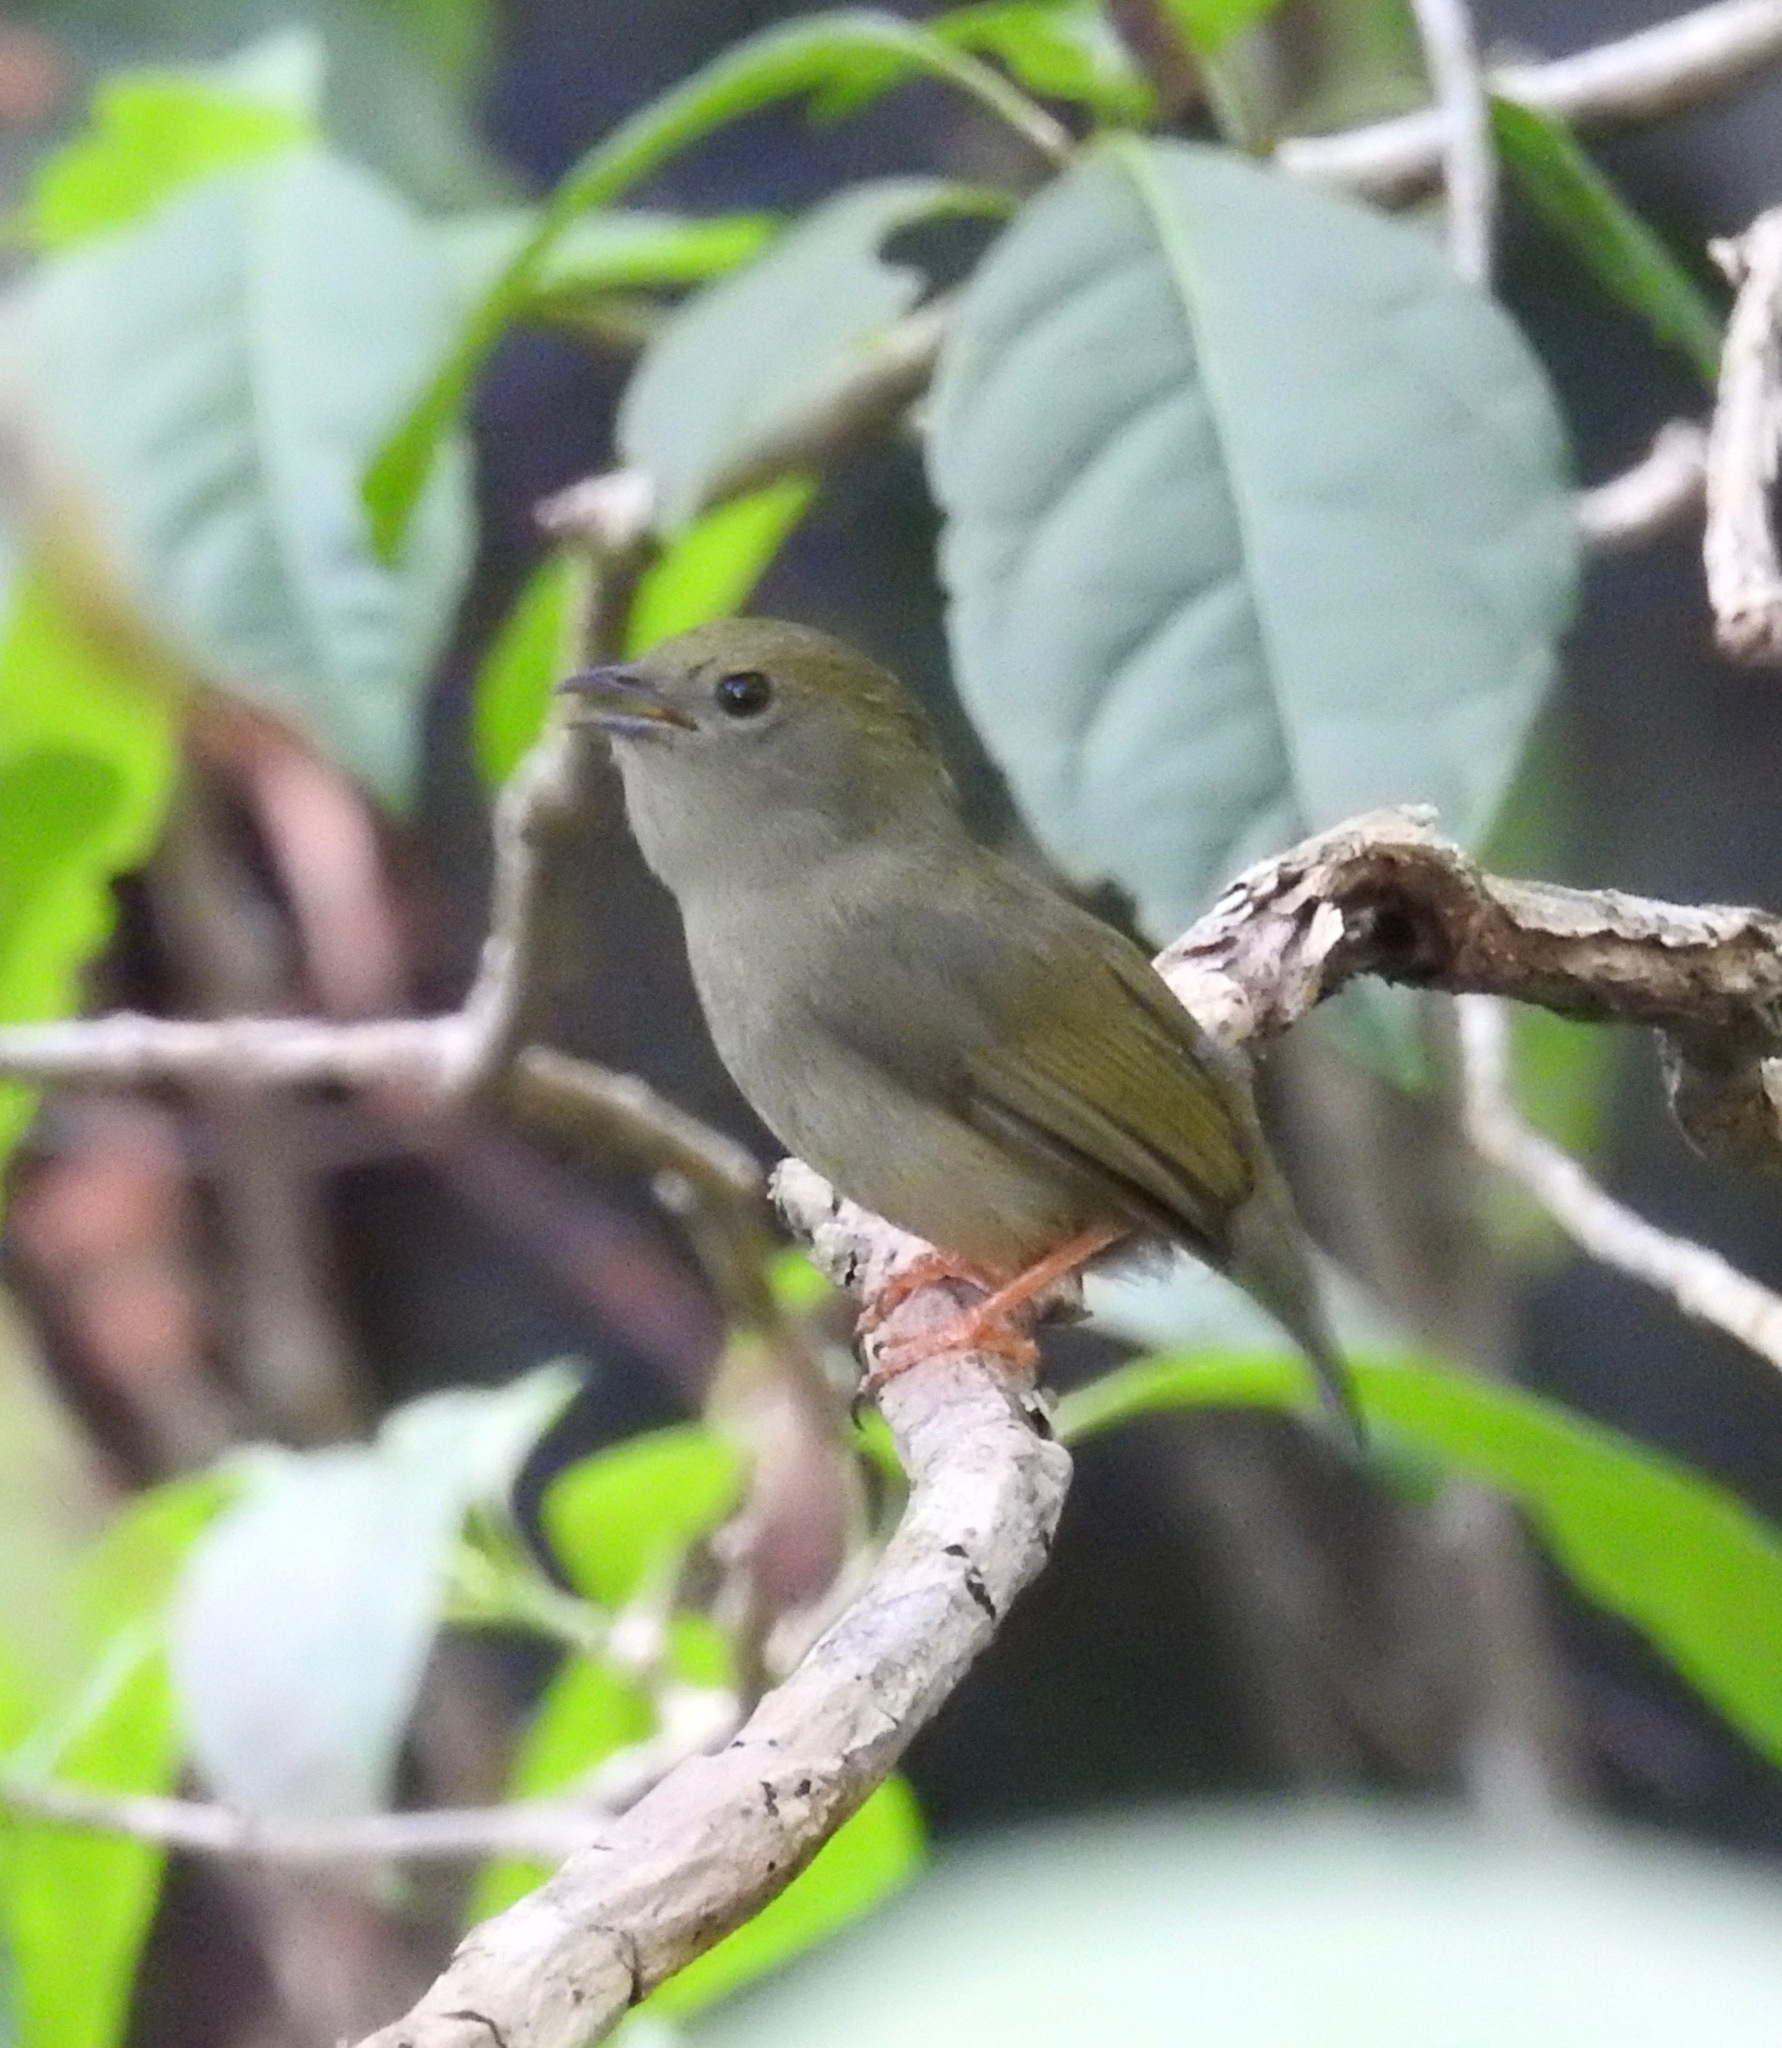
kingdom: Animalia
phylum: Chordata
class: Aves
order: Passeriformes
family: Pipridae
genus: Manacus
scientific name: Manacus manacus
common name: White-bearded manakin
